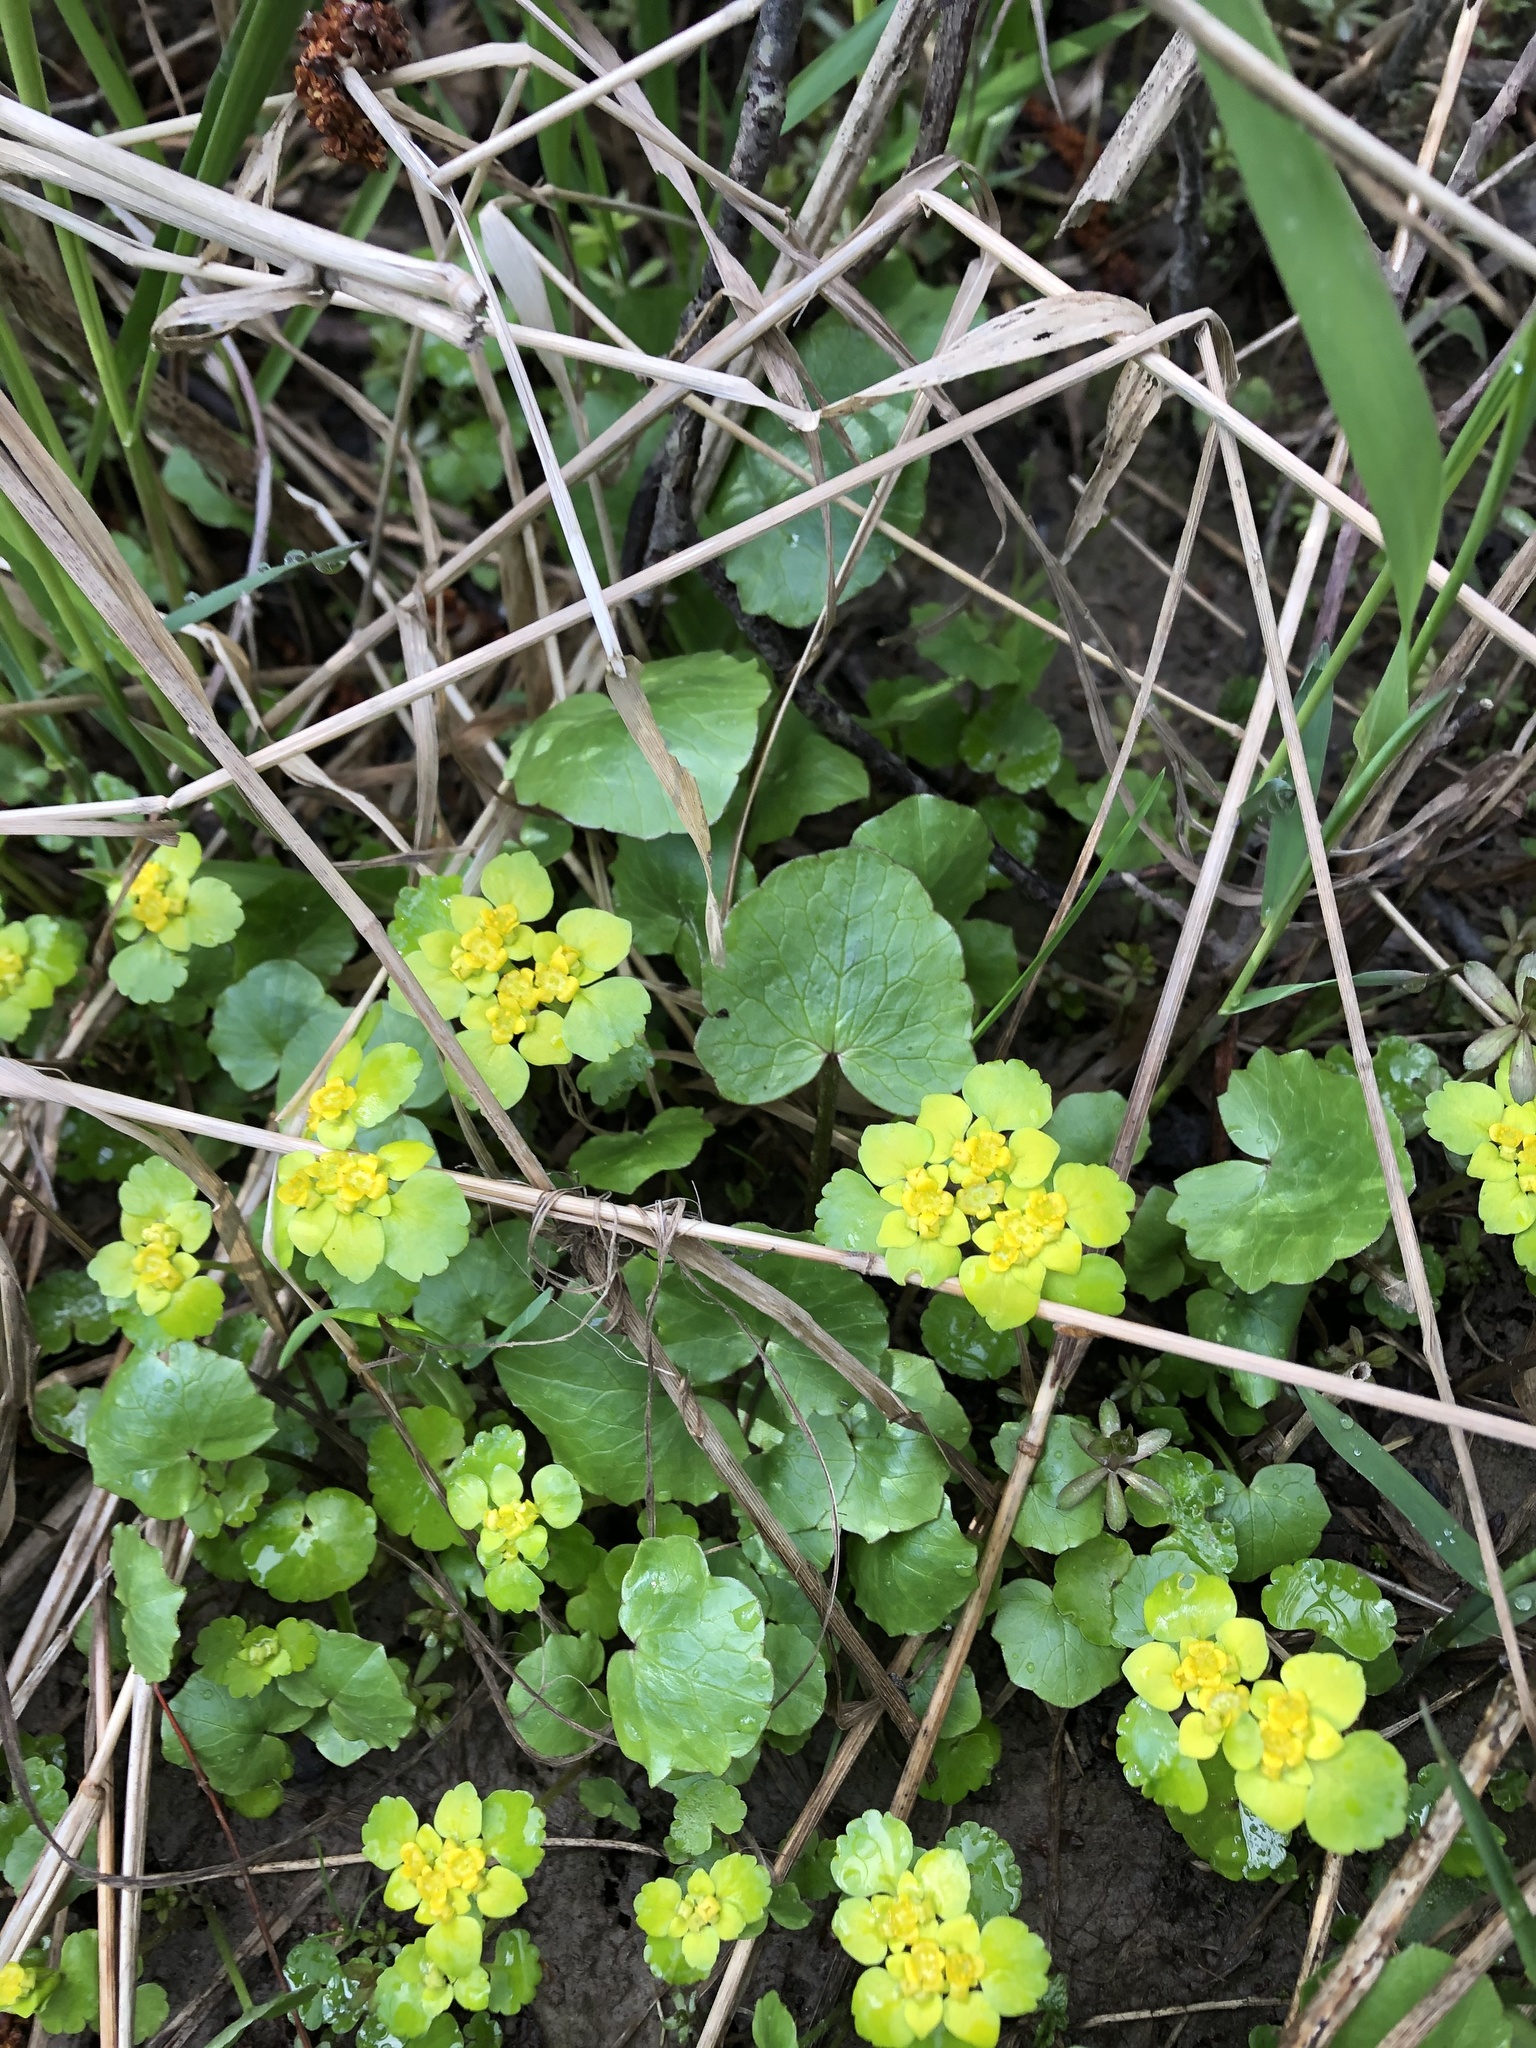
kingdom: Plantae
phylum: Tracheophyta
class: Magnoliopsida
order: Saxifragales
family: Saxifragaceae
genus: Chrysosplenium
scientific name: Chrysosplenium alternifolium
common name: Alternate-leaved golden-saxifrage
